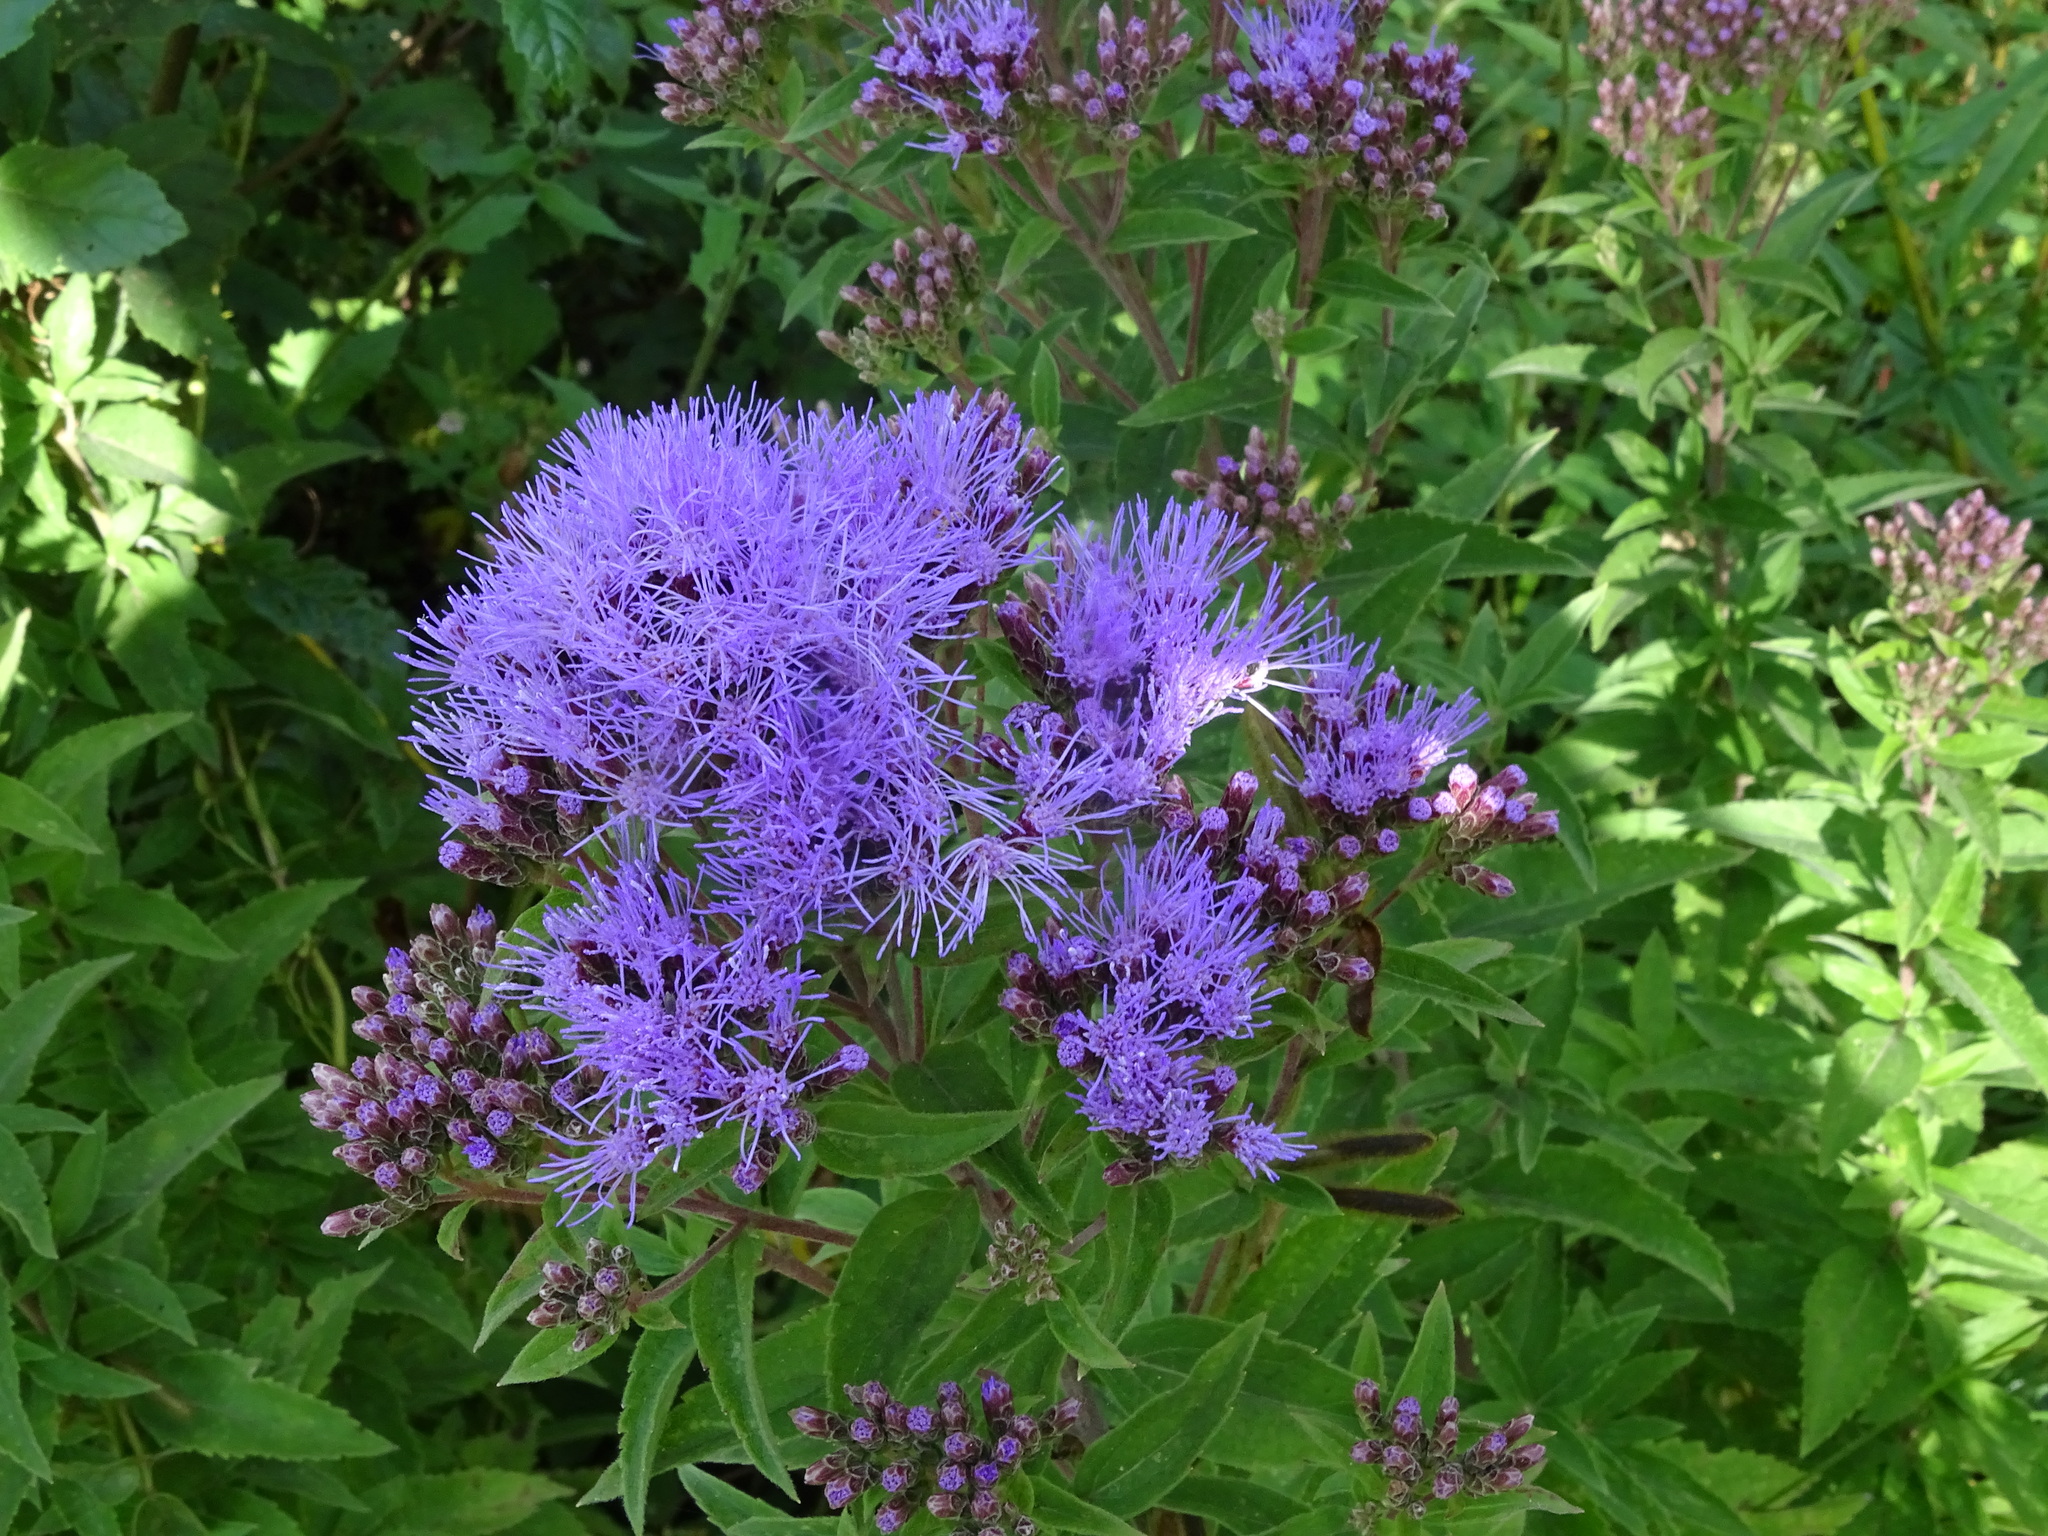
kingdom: Plantae
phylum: Tracheophyta
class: Magnoliopsida
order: Asterales
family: Asteraceae
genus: Chromolaena
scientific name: Chromolaena pulchella
